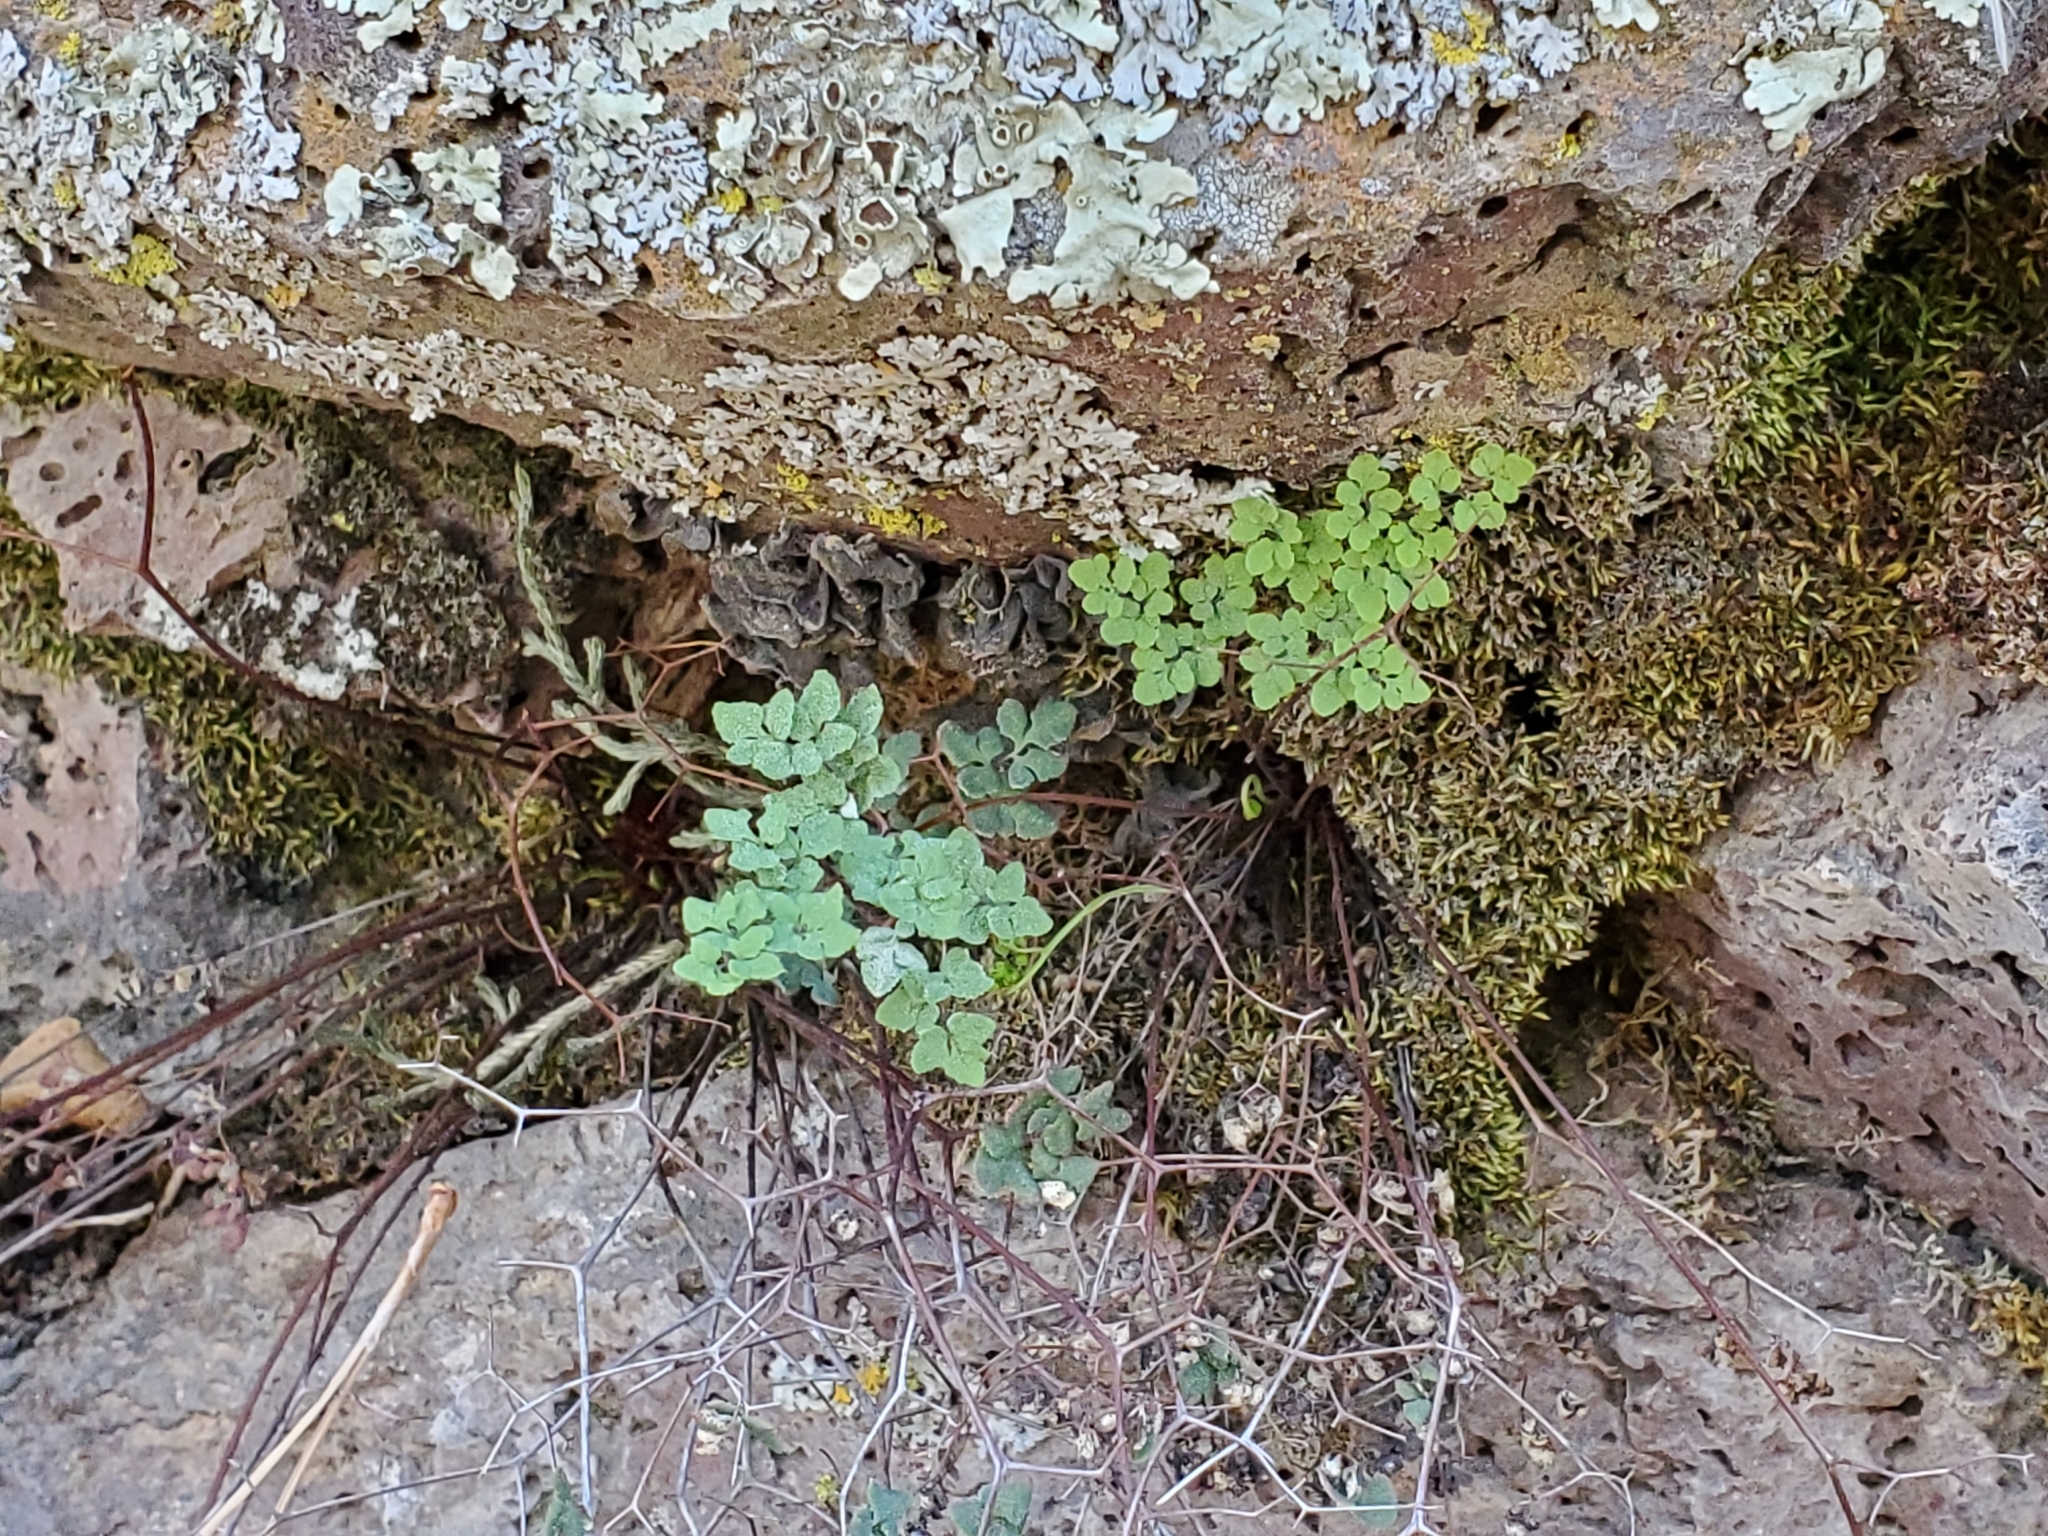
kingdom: Plantae
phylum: Tracheophyta
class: Polypodiopsida
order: Polypodiales
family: Pteridaceae
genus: Argyrochosma
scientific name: Argyrochosma fendleri
